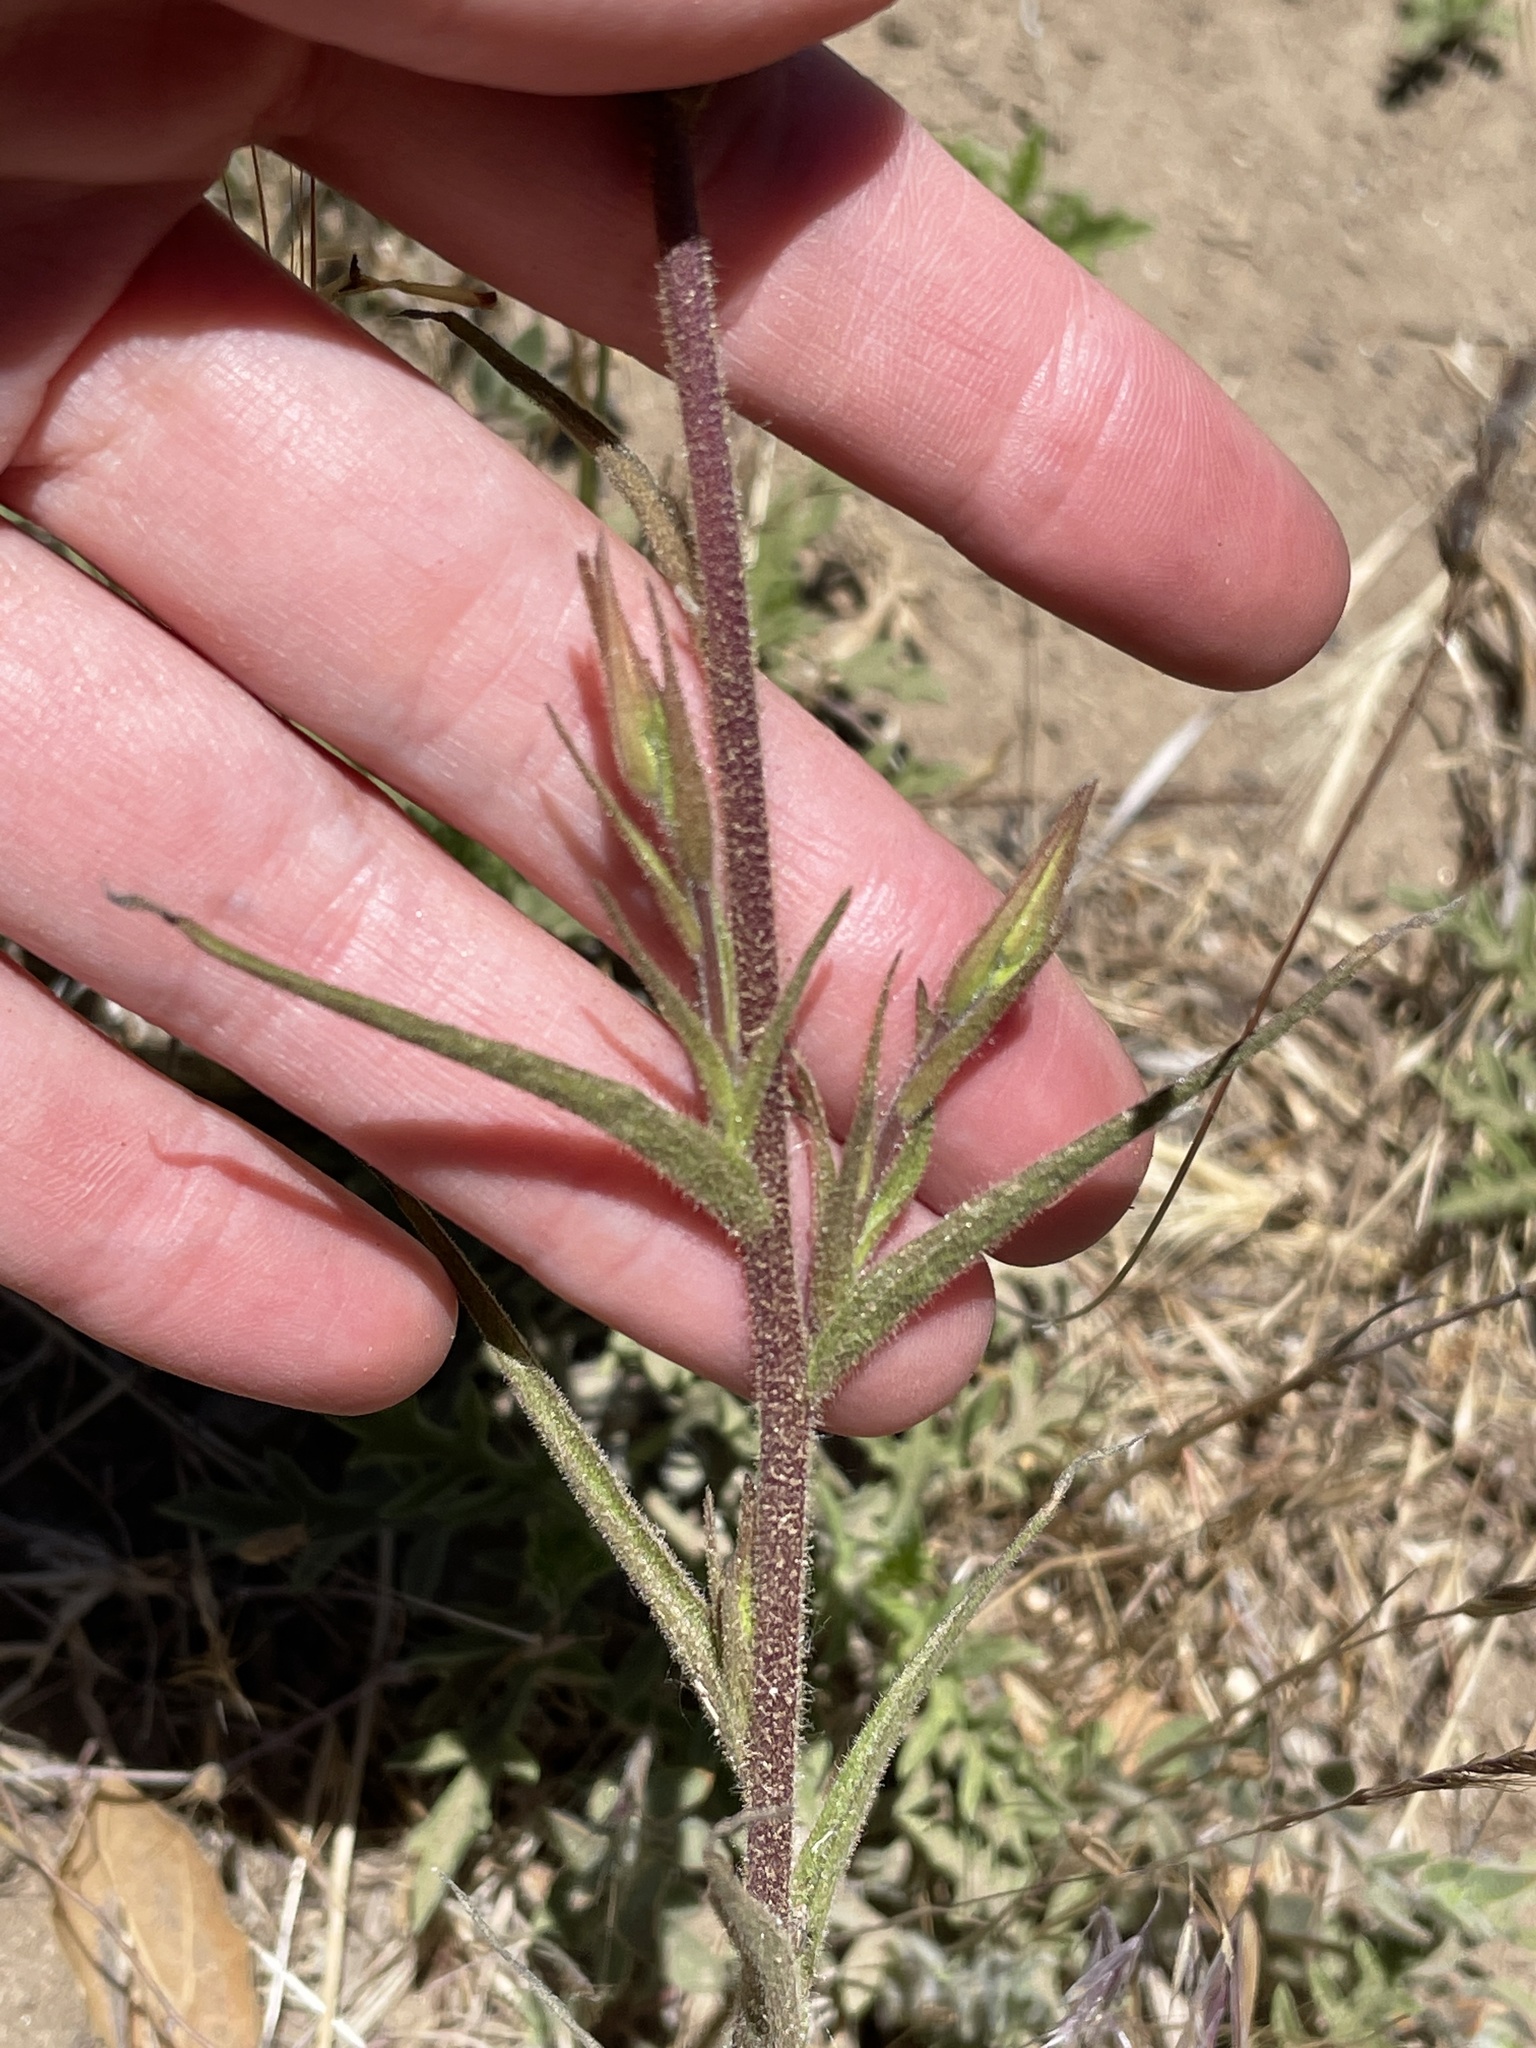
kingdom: Plantae
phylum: Tracheophyta
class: Magnoliopsida
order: Lamiales
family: Orobanchaceae
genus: Castilleja
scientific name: Castilleja minor
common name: Seep paintbrush
